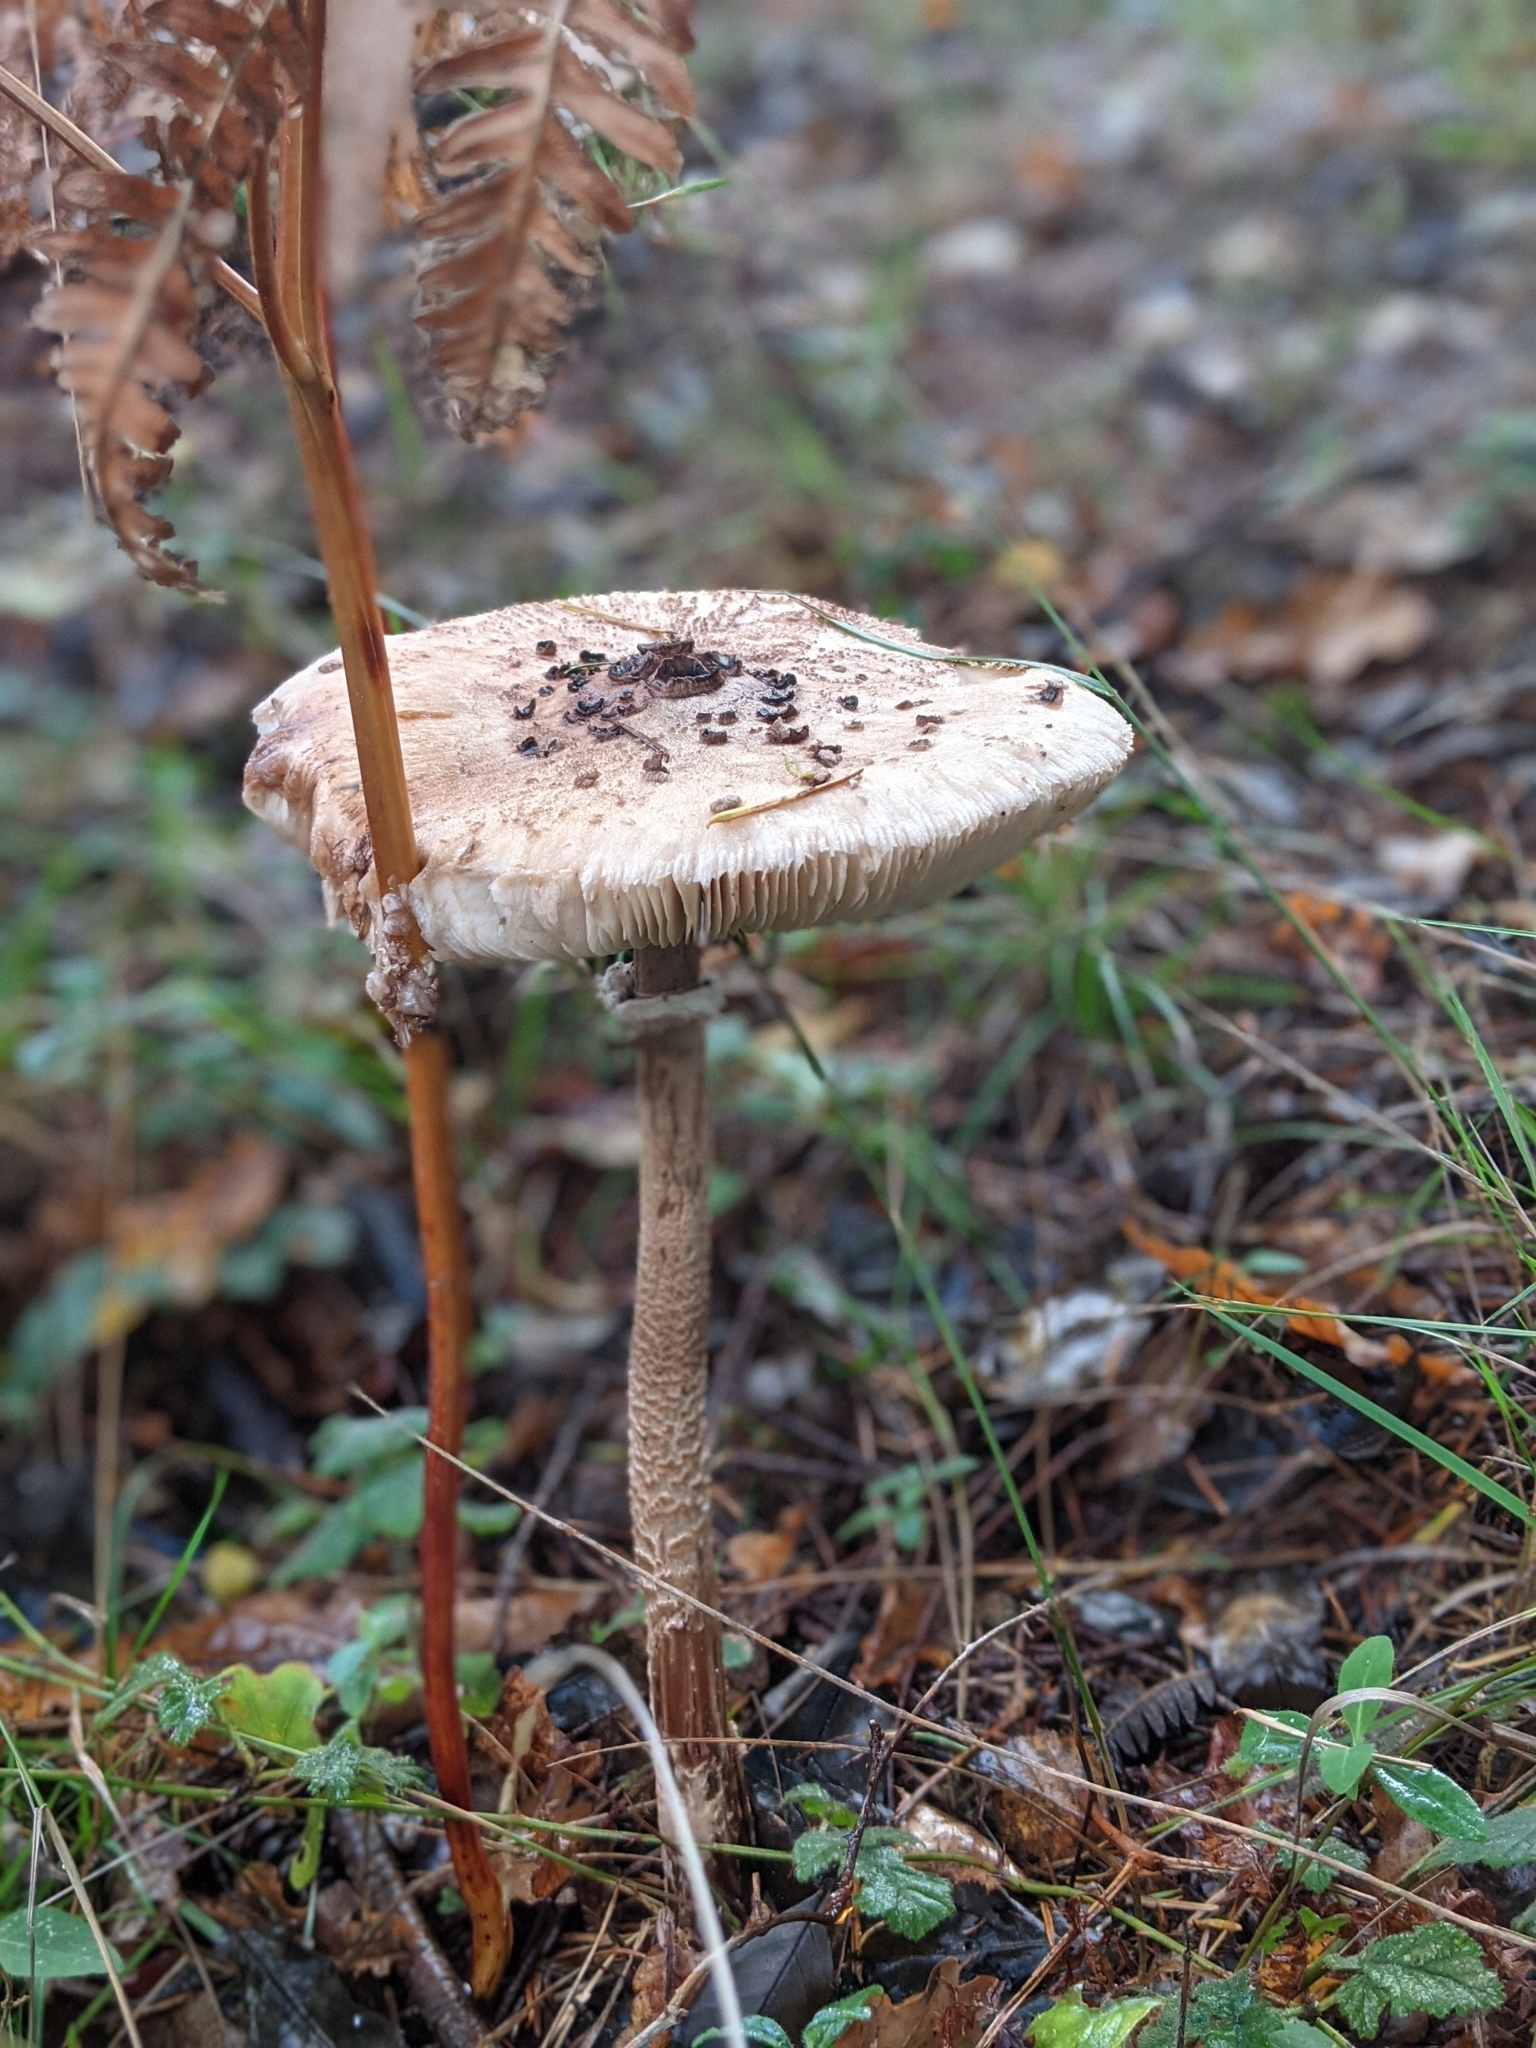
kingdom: Fungi
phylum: Basidiomycota
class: Agaricomycetes
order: Agaricales
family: Agaricaceae
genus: Macrolepiota
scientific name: Macrolepiota procera
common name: Parasol
